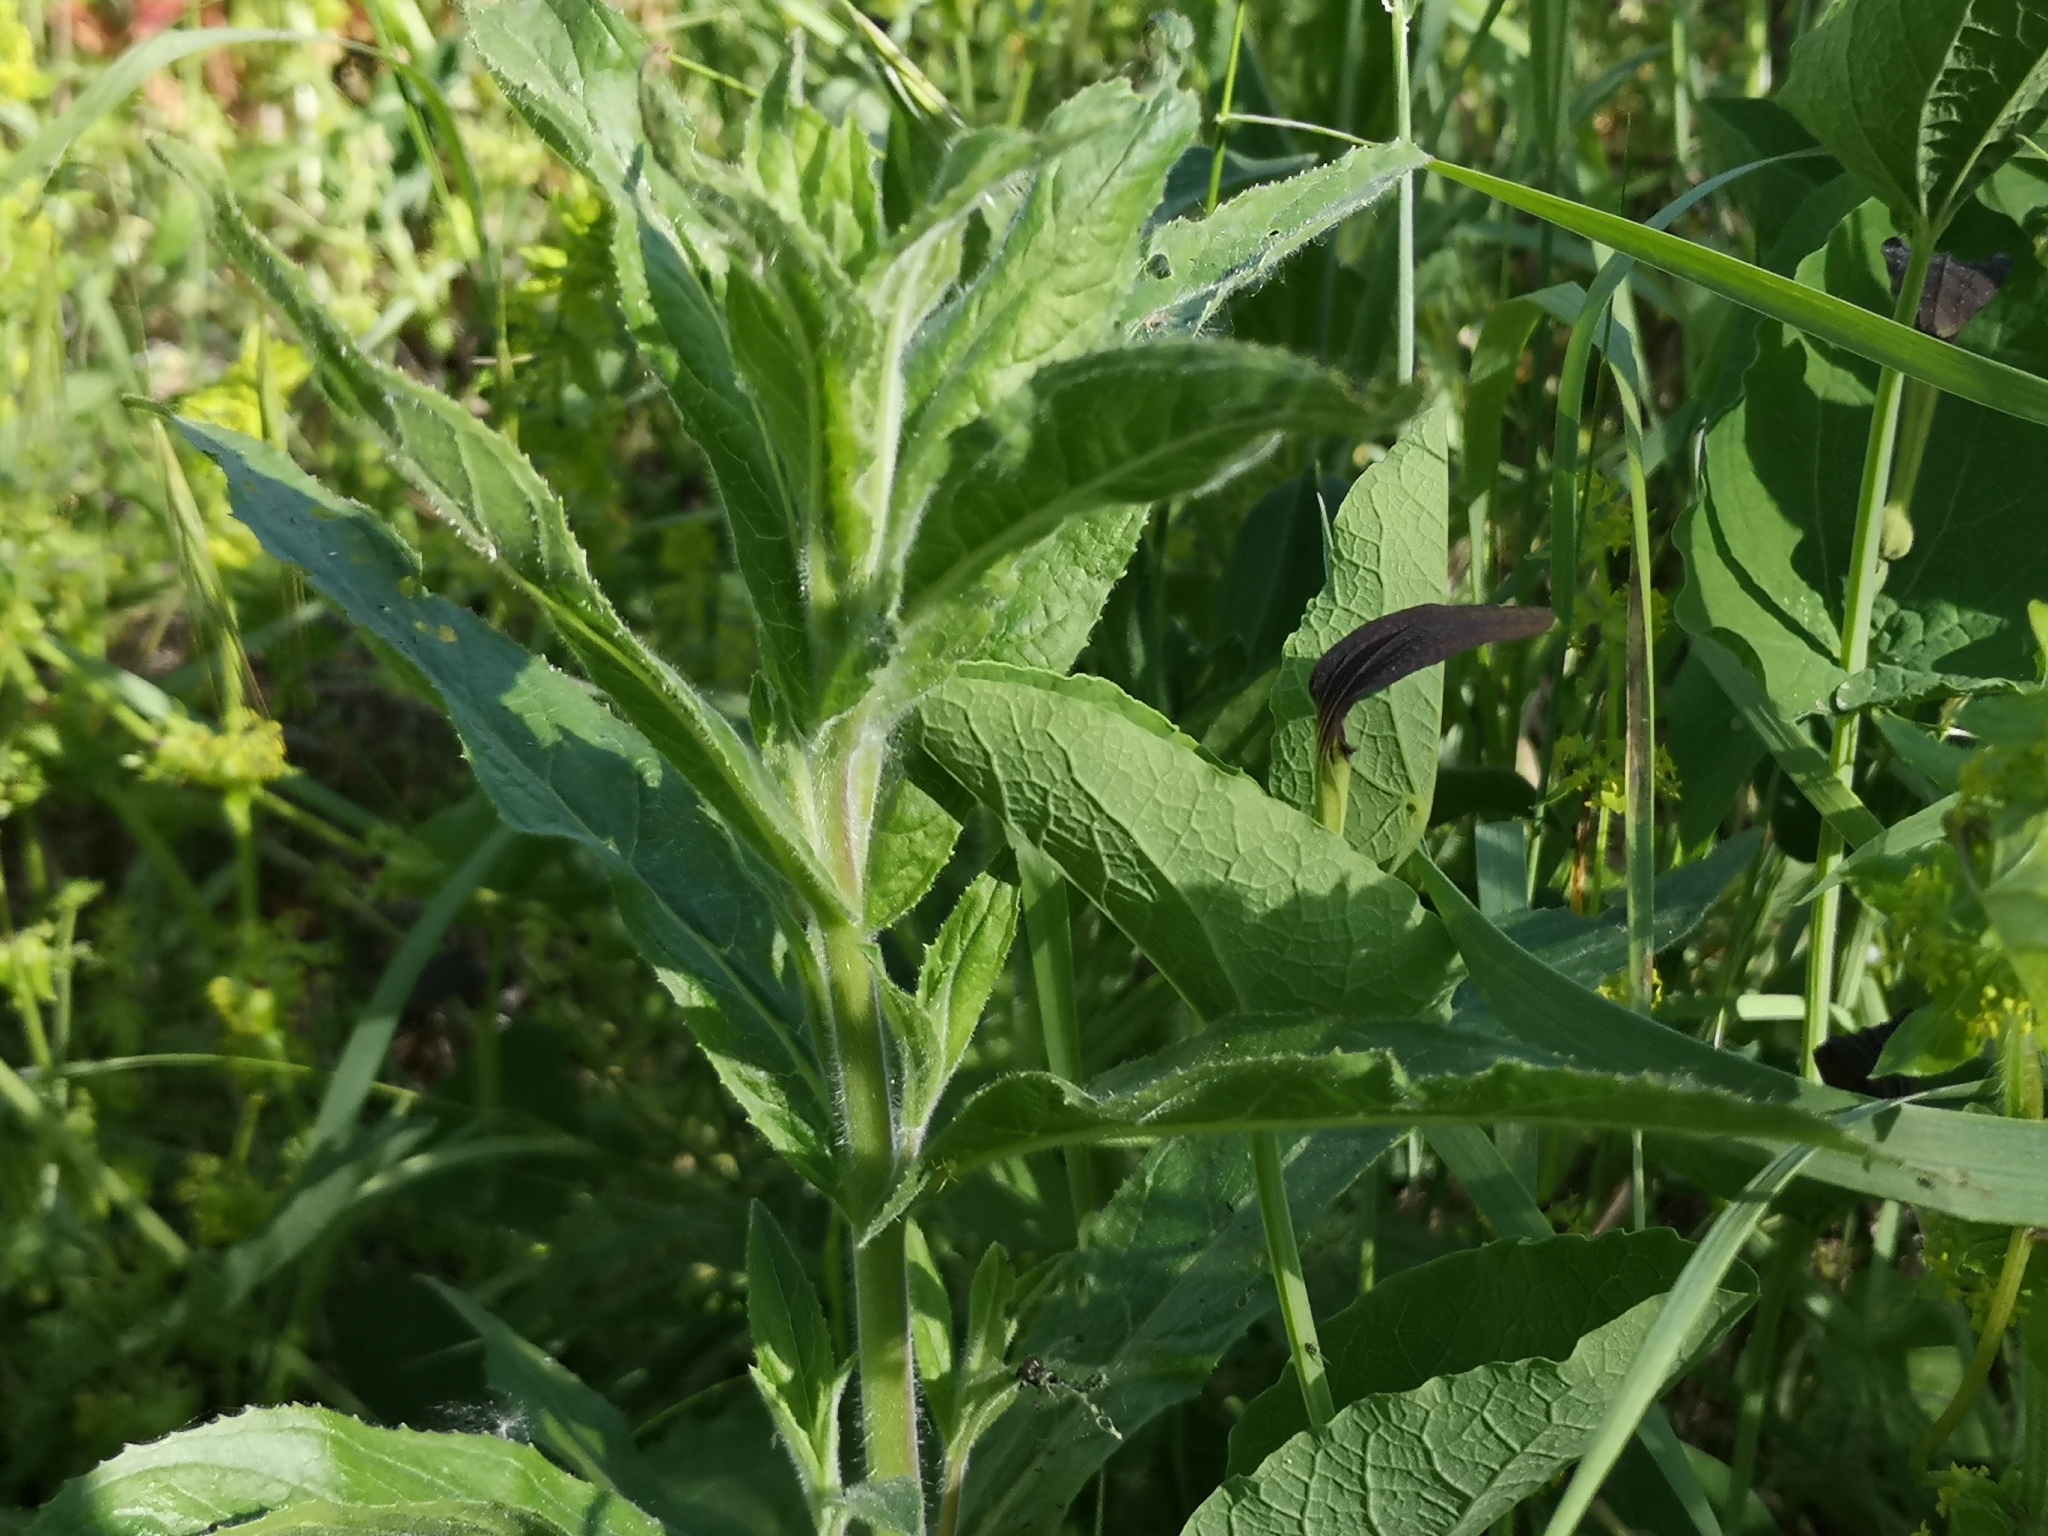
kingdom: Plantae
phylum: Tracheophyta
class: Magnoliopsida
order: Piperales
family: Aristolochiaceae
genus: Aristolochia
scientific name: Aristolochia rotunda
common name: Smearwort
